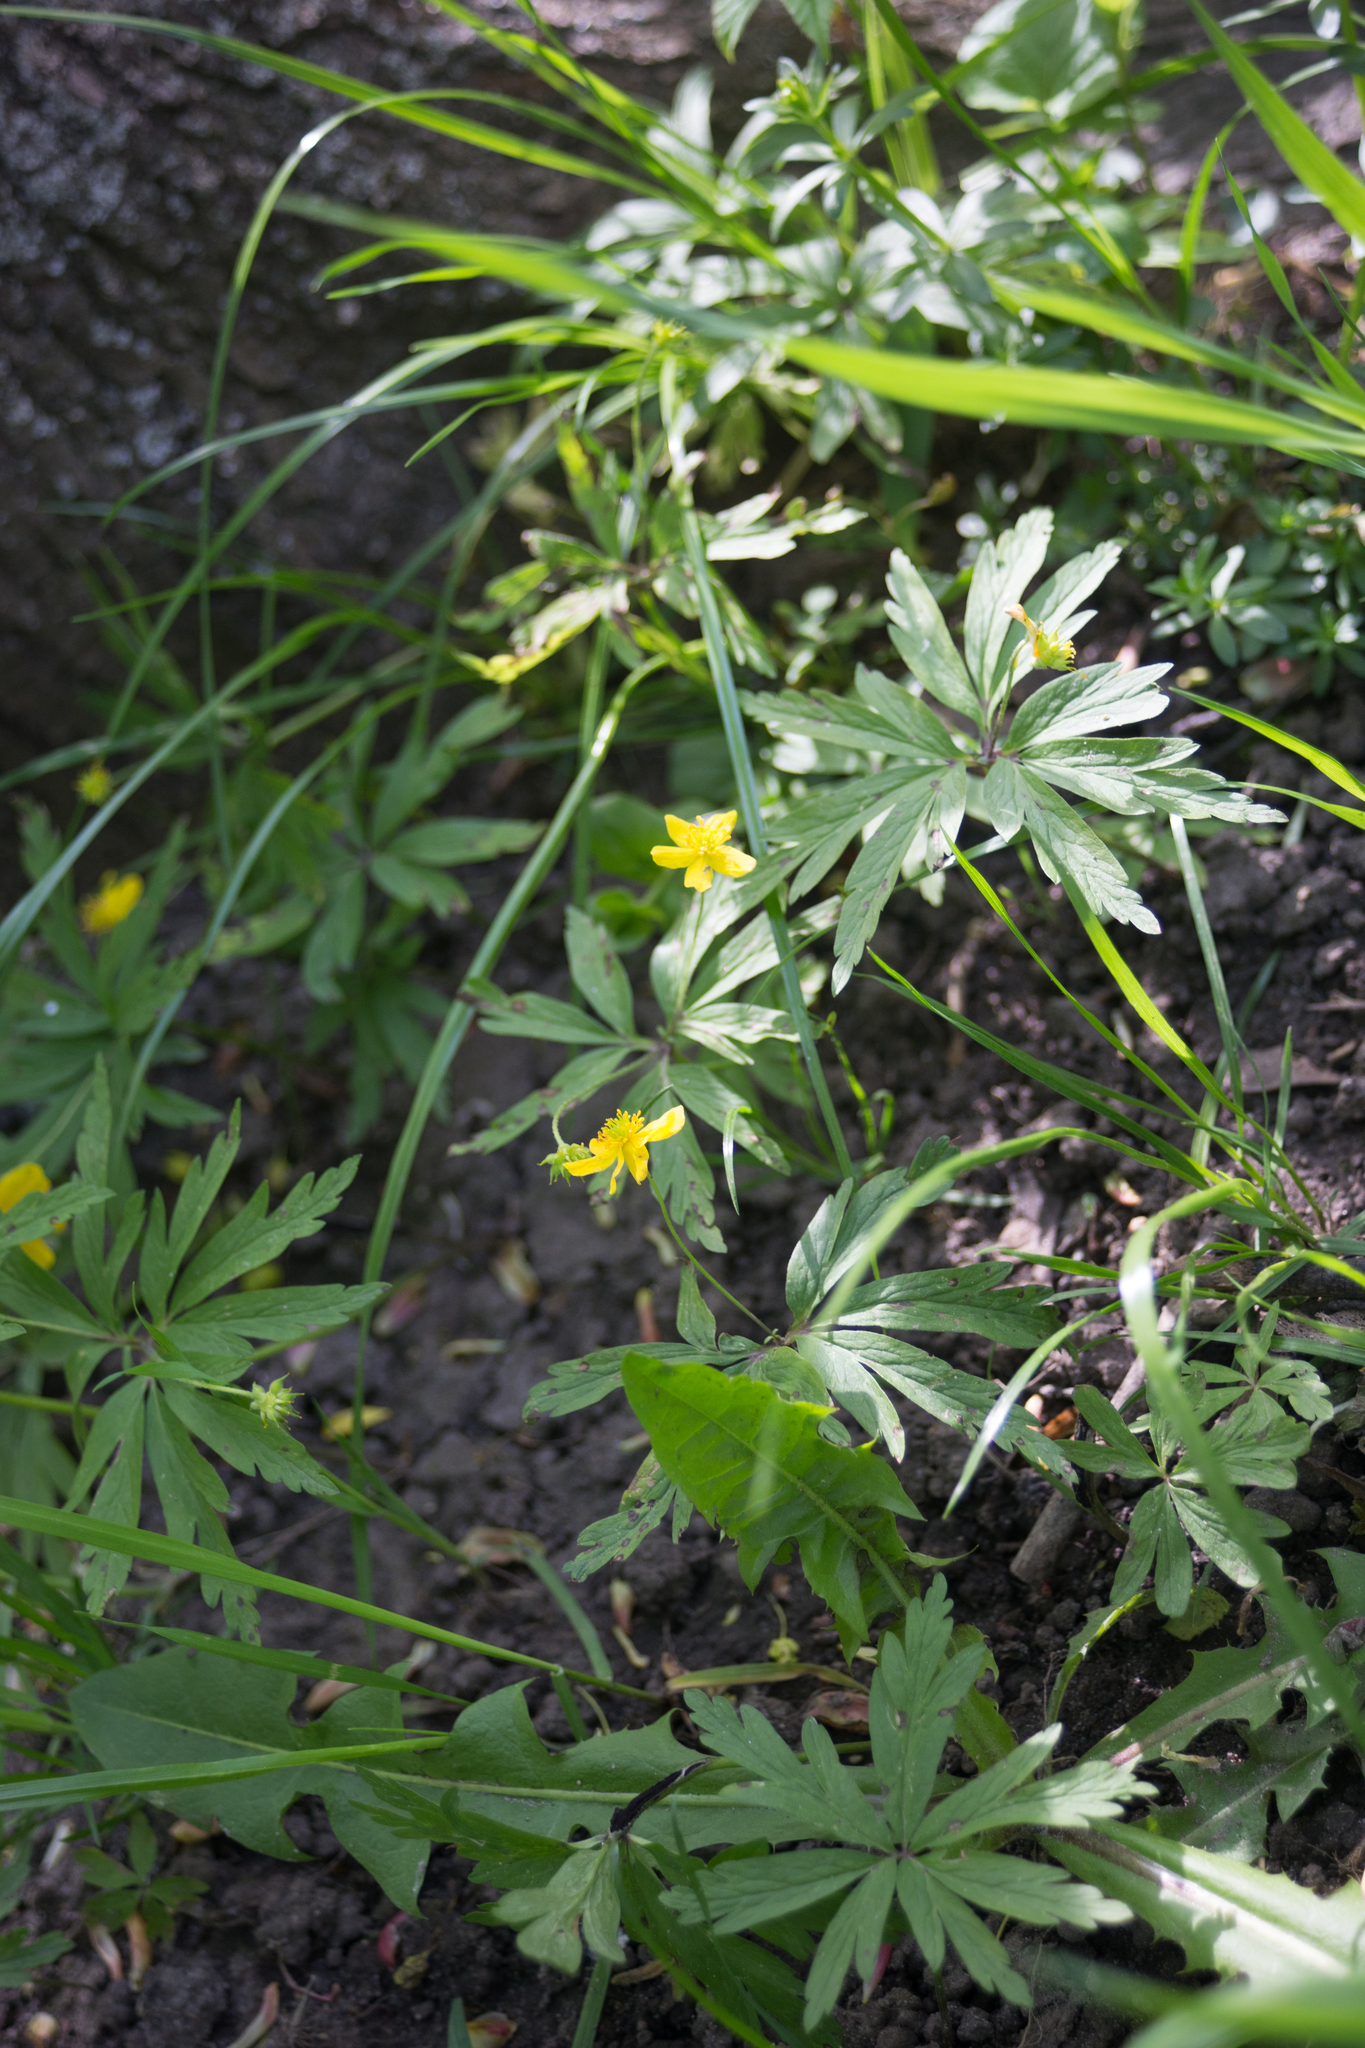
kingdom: Plantae
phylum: Tracheophyta
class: Magnoliopsida
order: Ranunculales
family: Ranunculaceae
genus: Anemone
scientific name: Anemone ranunculoides
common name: Yellow anemone
